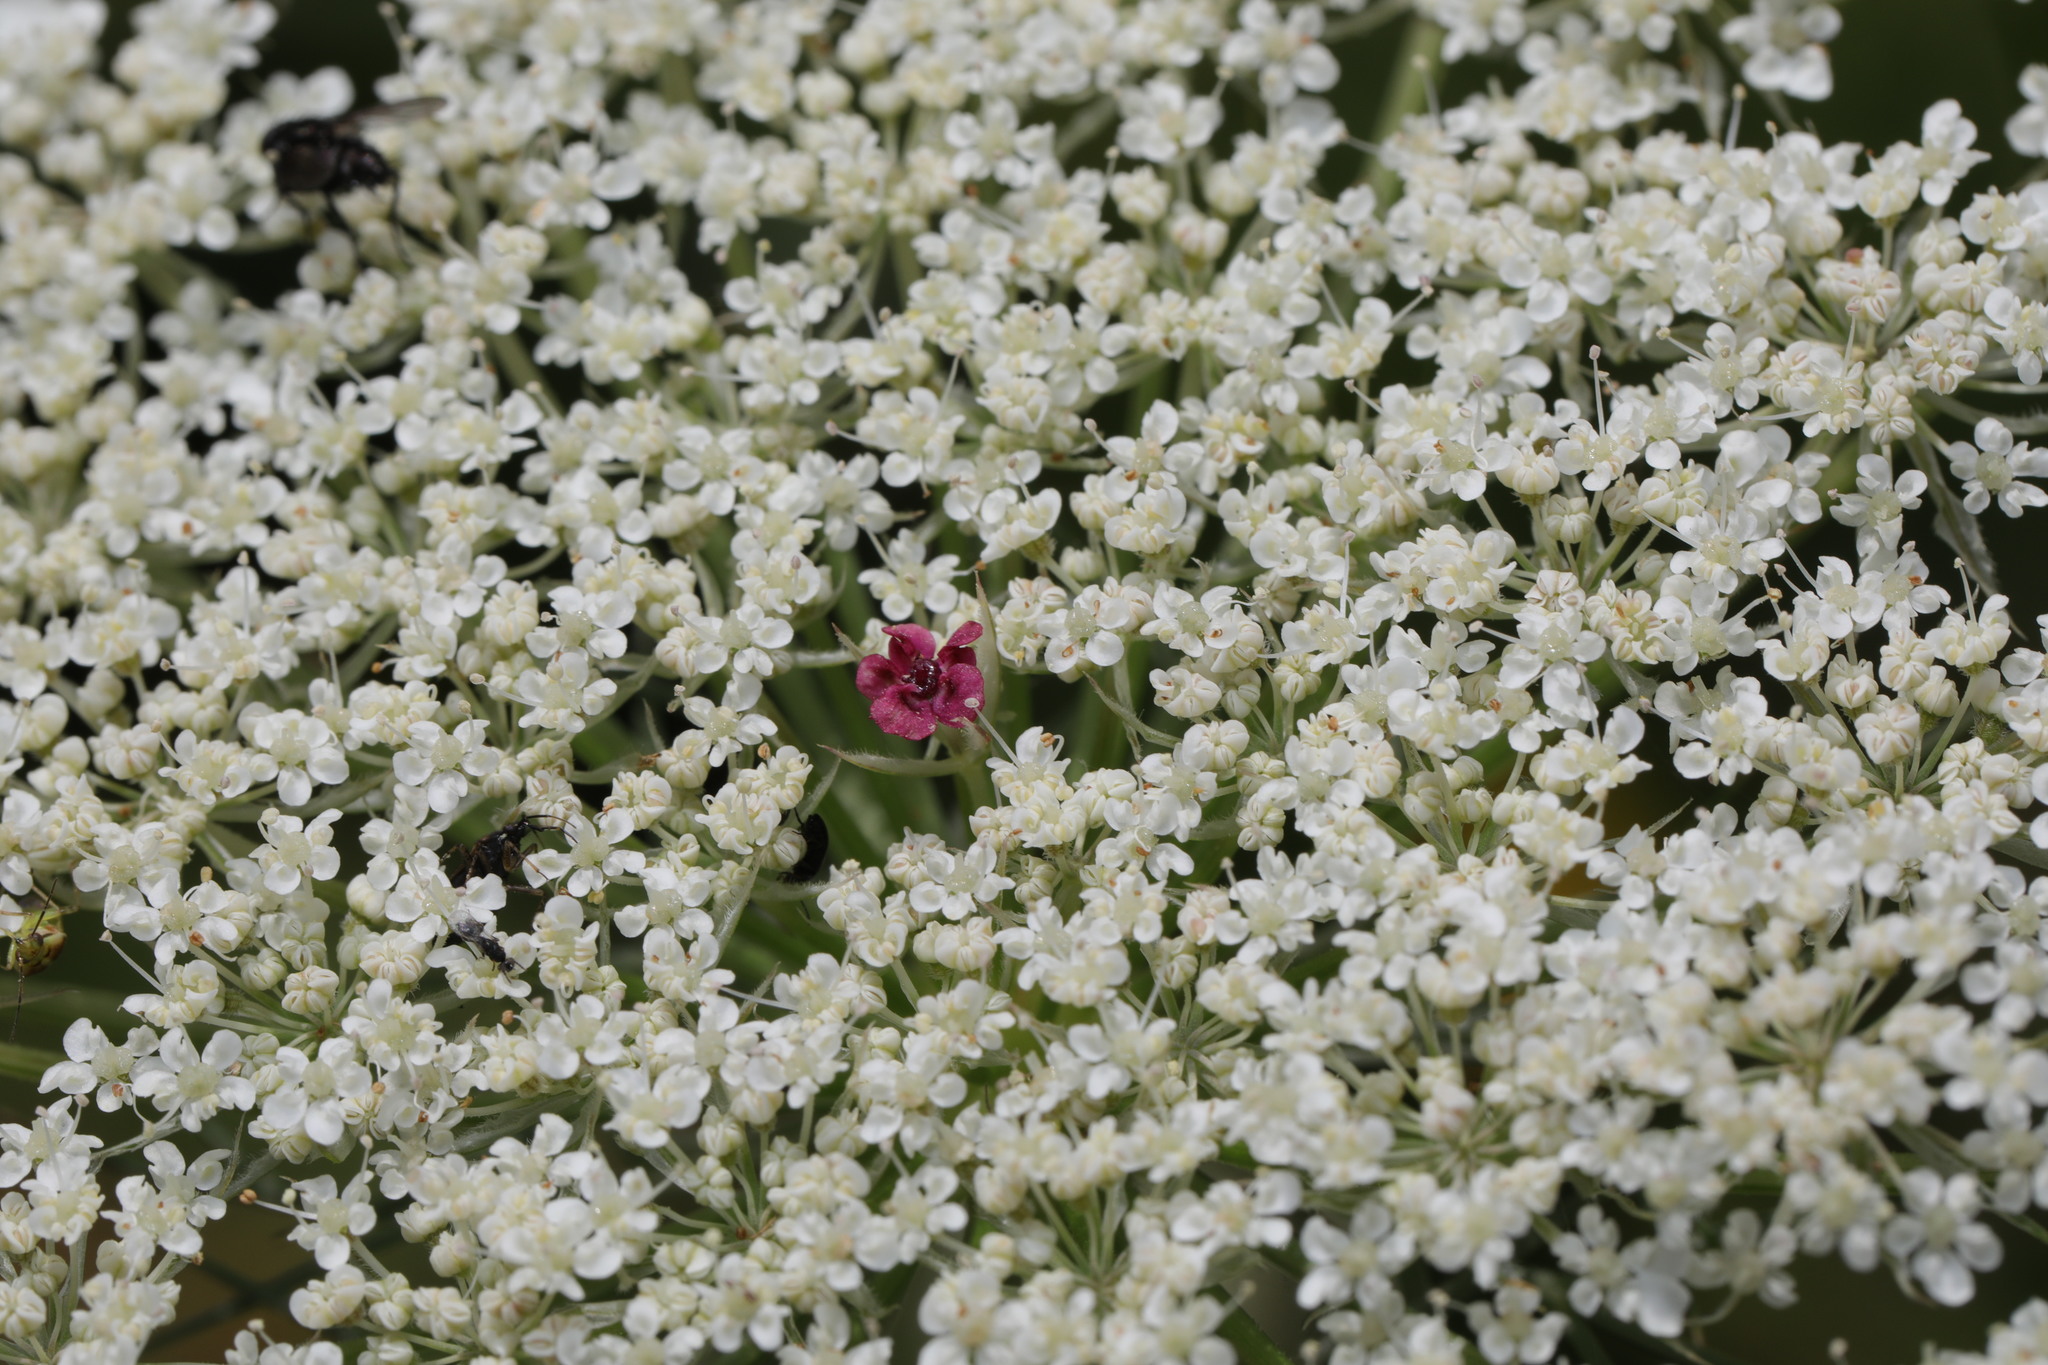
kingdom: Plantae
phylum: Tracheophyta
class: Magnoliopsida
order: Apiales
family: Apiaceae
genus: Daucus
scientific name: Daucus carota
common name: Wild carrot
